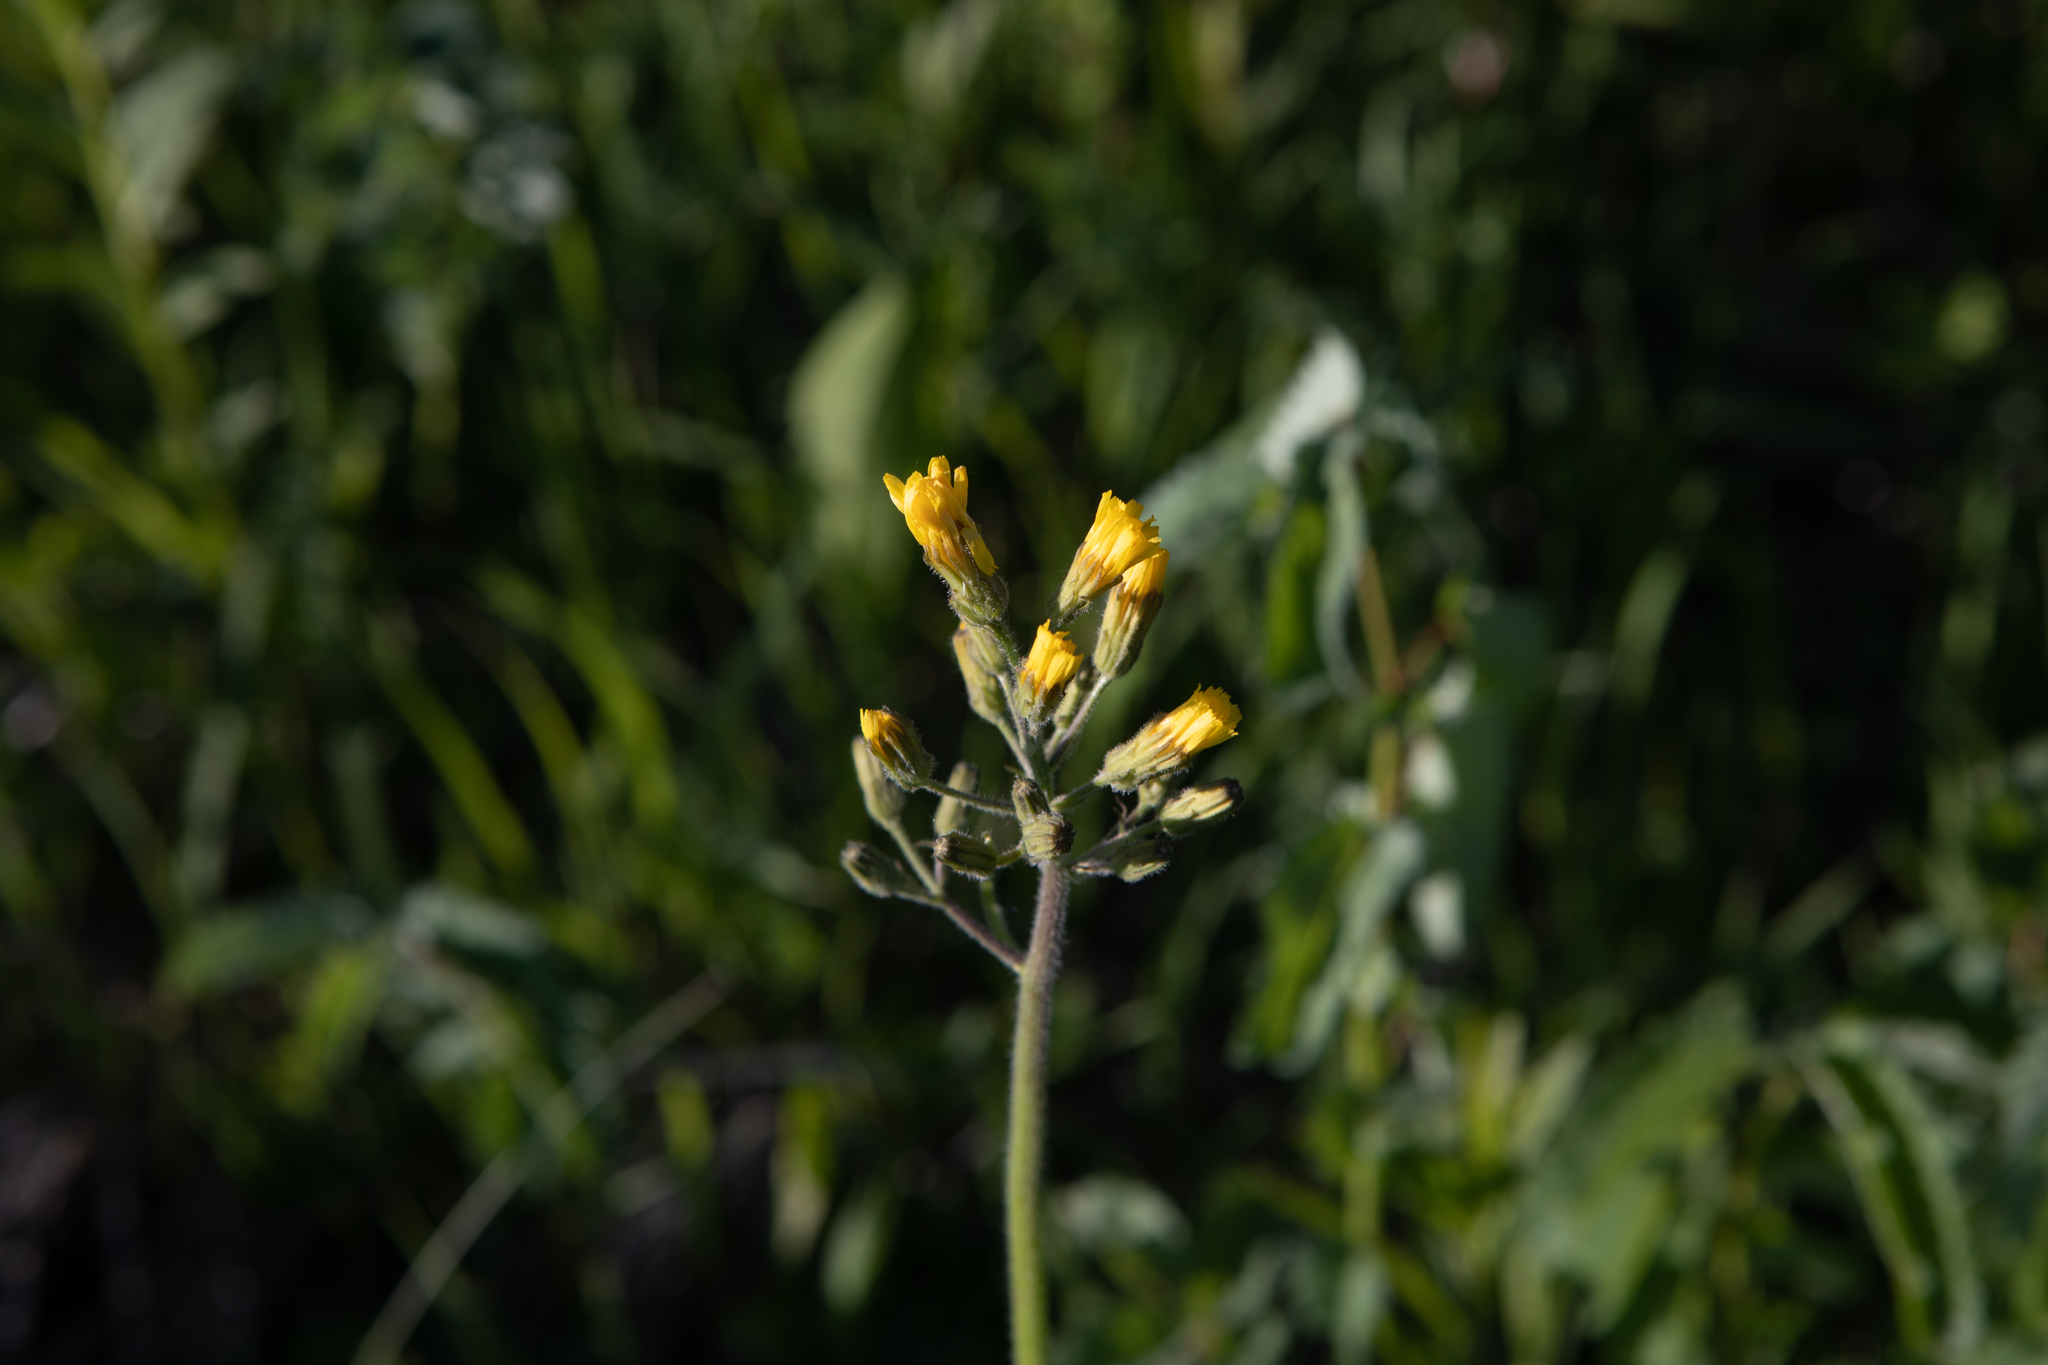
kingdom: Plantae
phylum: Tracheophyta
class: Magnoliopsida
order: Asterales
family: Asteraceae
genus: Crepis
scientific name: Crepis praemorsa
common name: Leafless hawk's-beard
